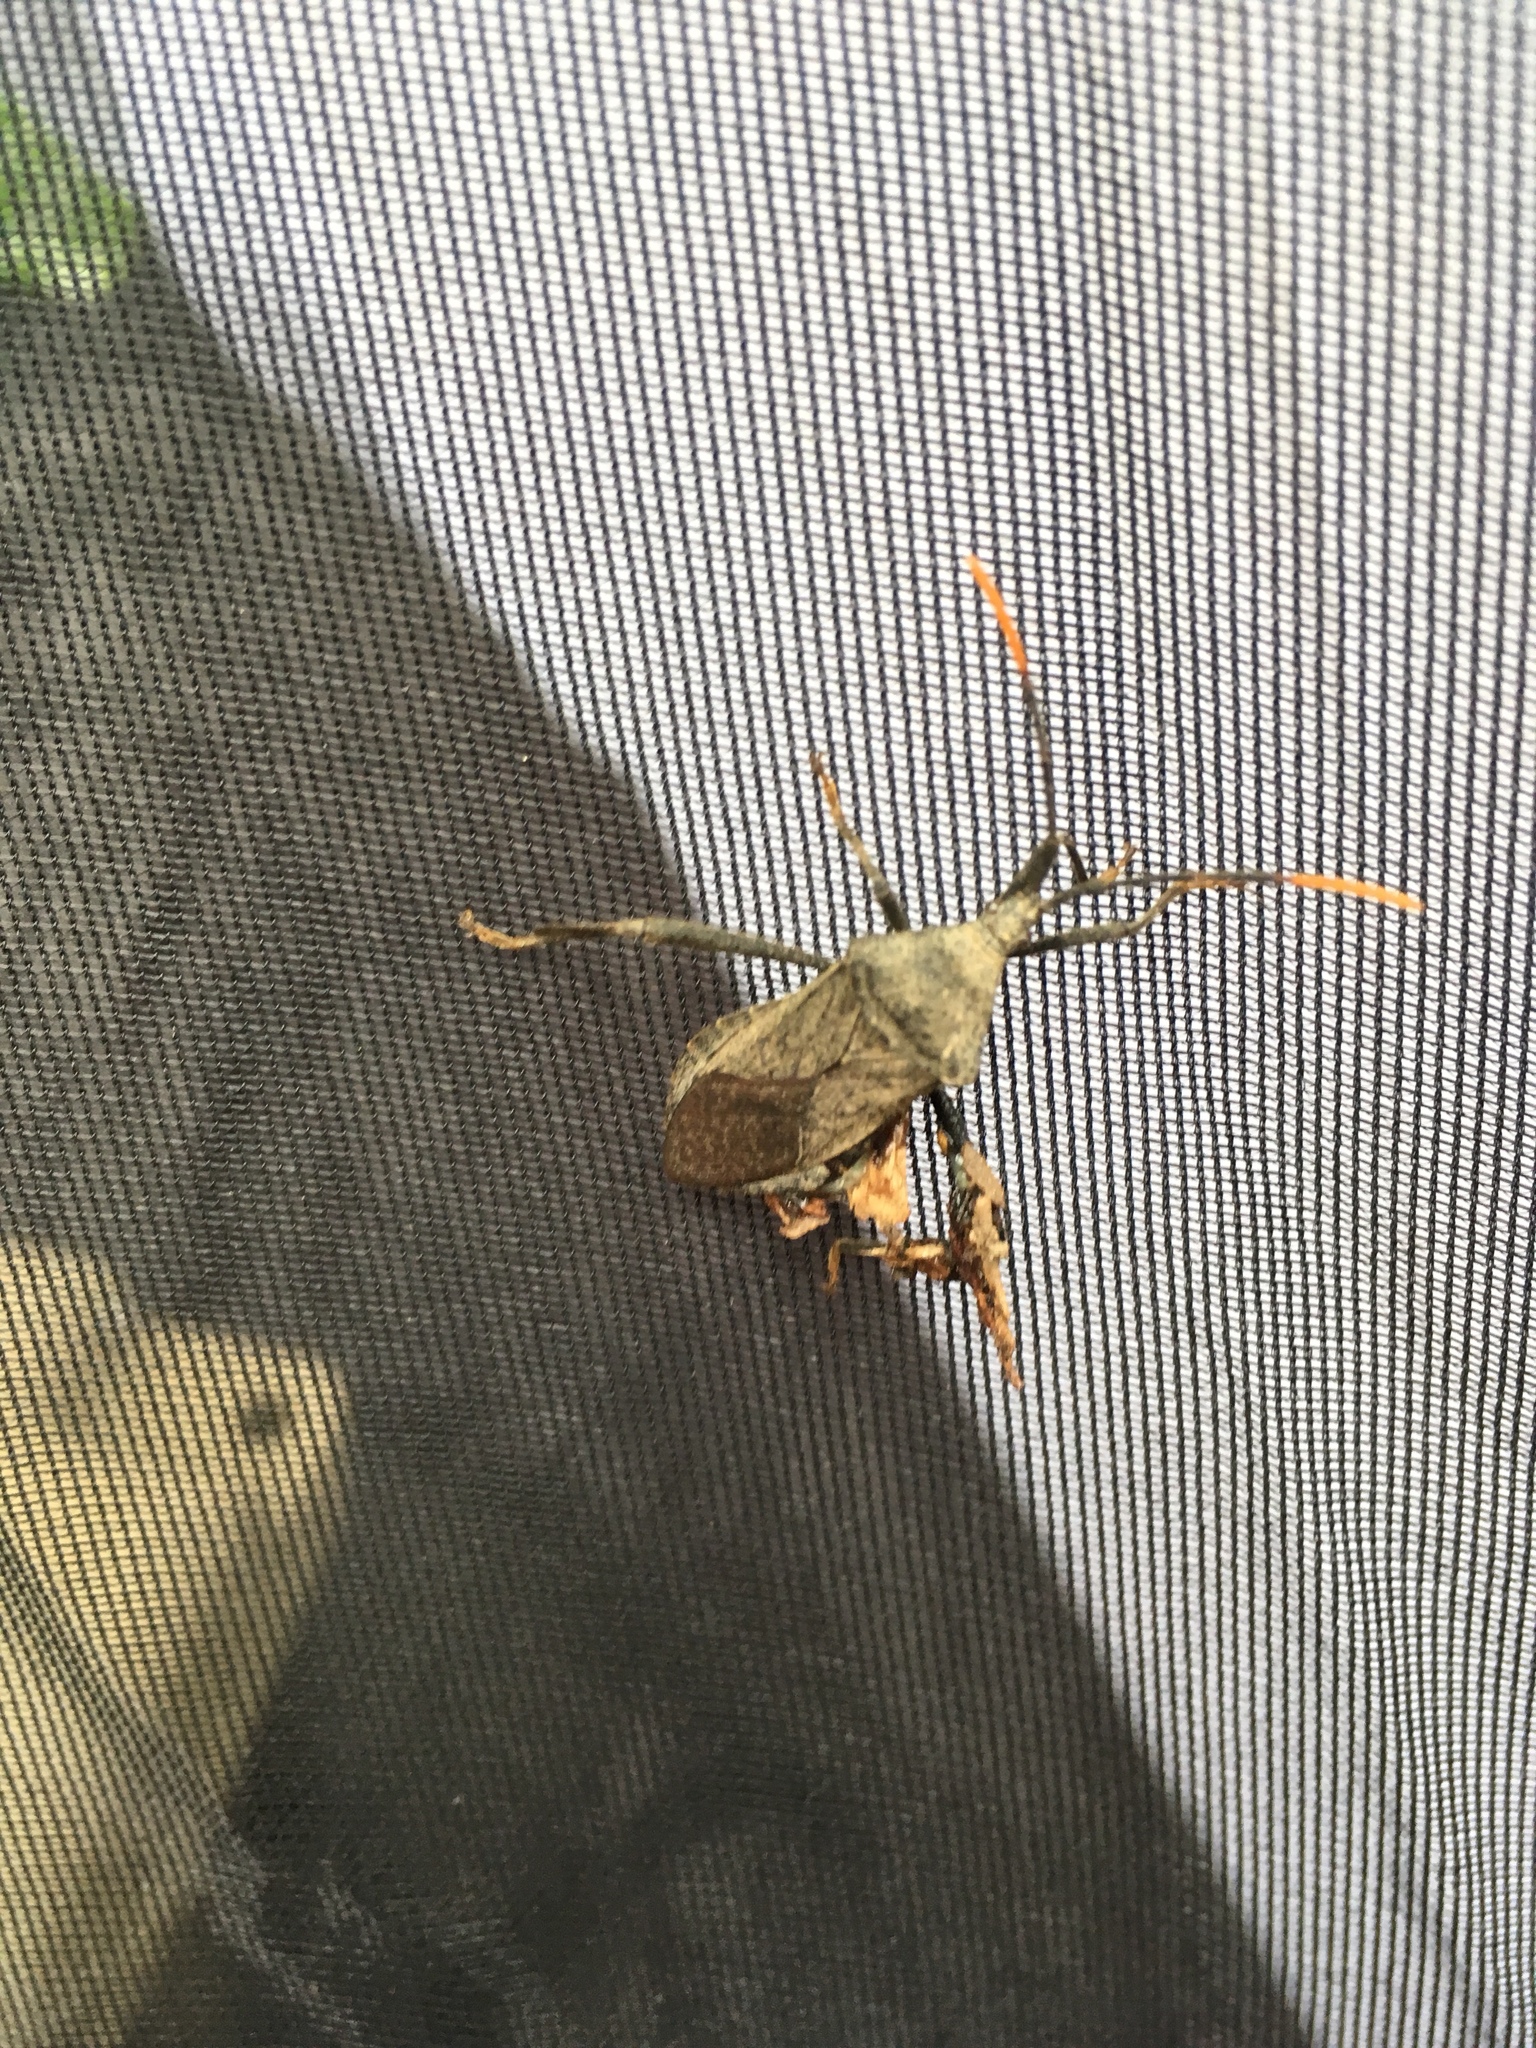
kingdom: Animalia
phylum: Arthropoda
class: Insecta
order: Hemiptera
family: Coreidae
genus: Acanthocephala
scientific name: Acanthocephala terminalis
